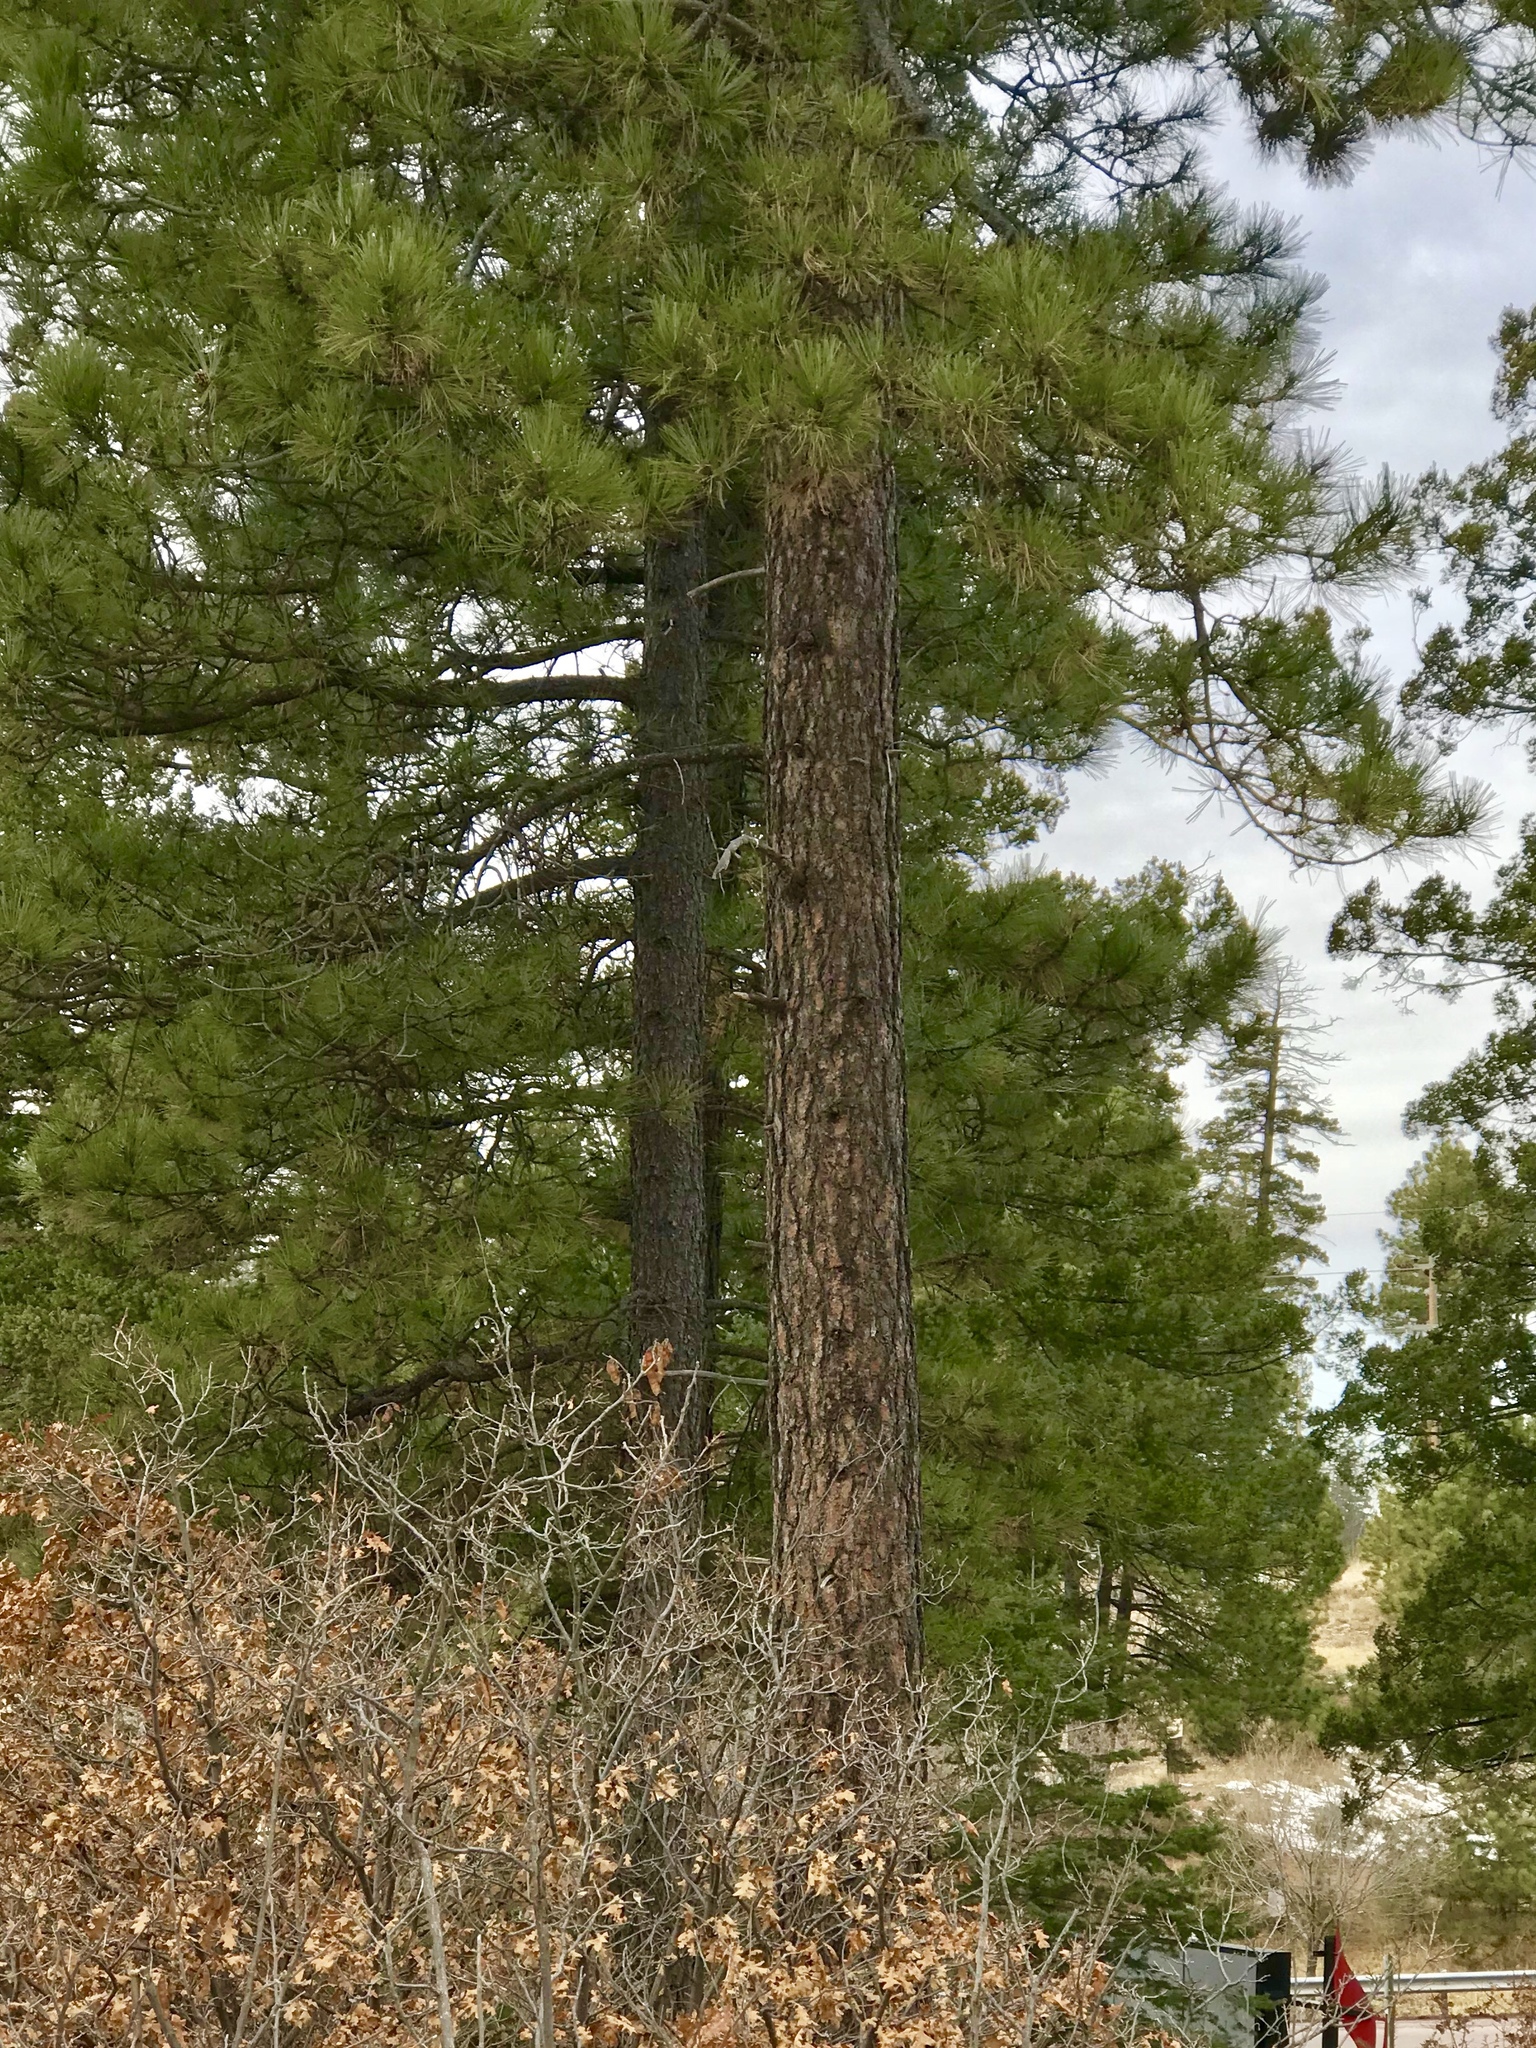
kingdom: Plantae
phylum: Tracheophyta
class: Pinopsida
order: Pinales
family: Pinaceae
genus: Pinus
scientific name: Pinus ponderosa
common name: Western yellow-pine
